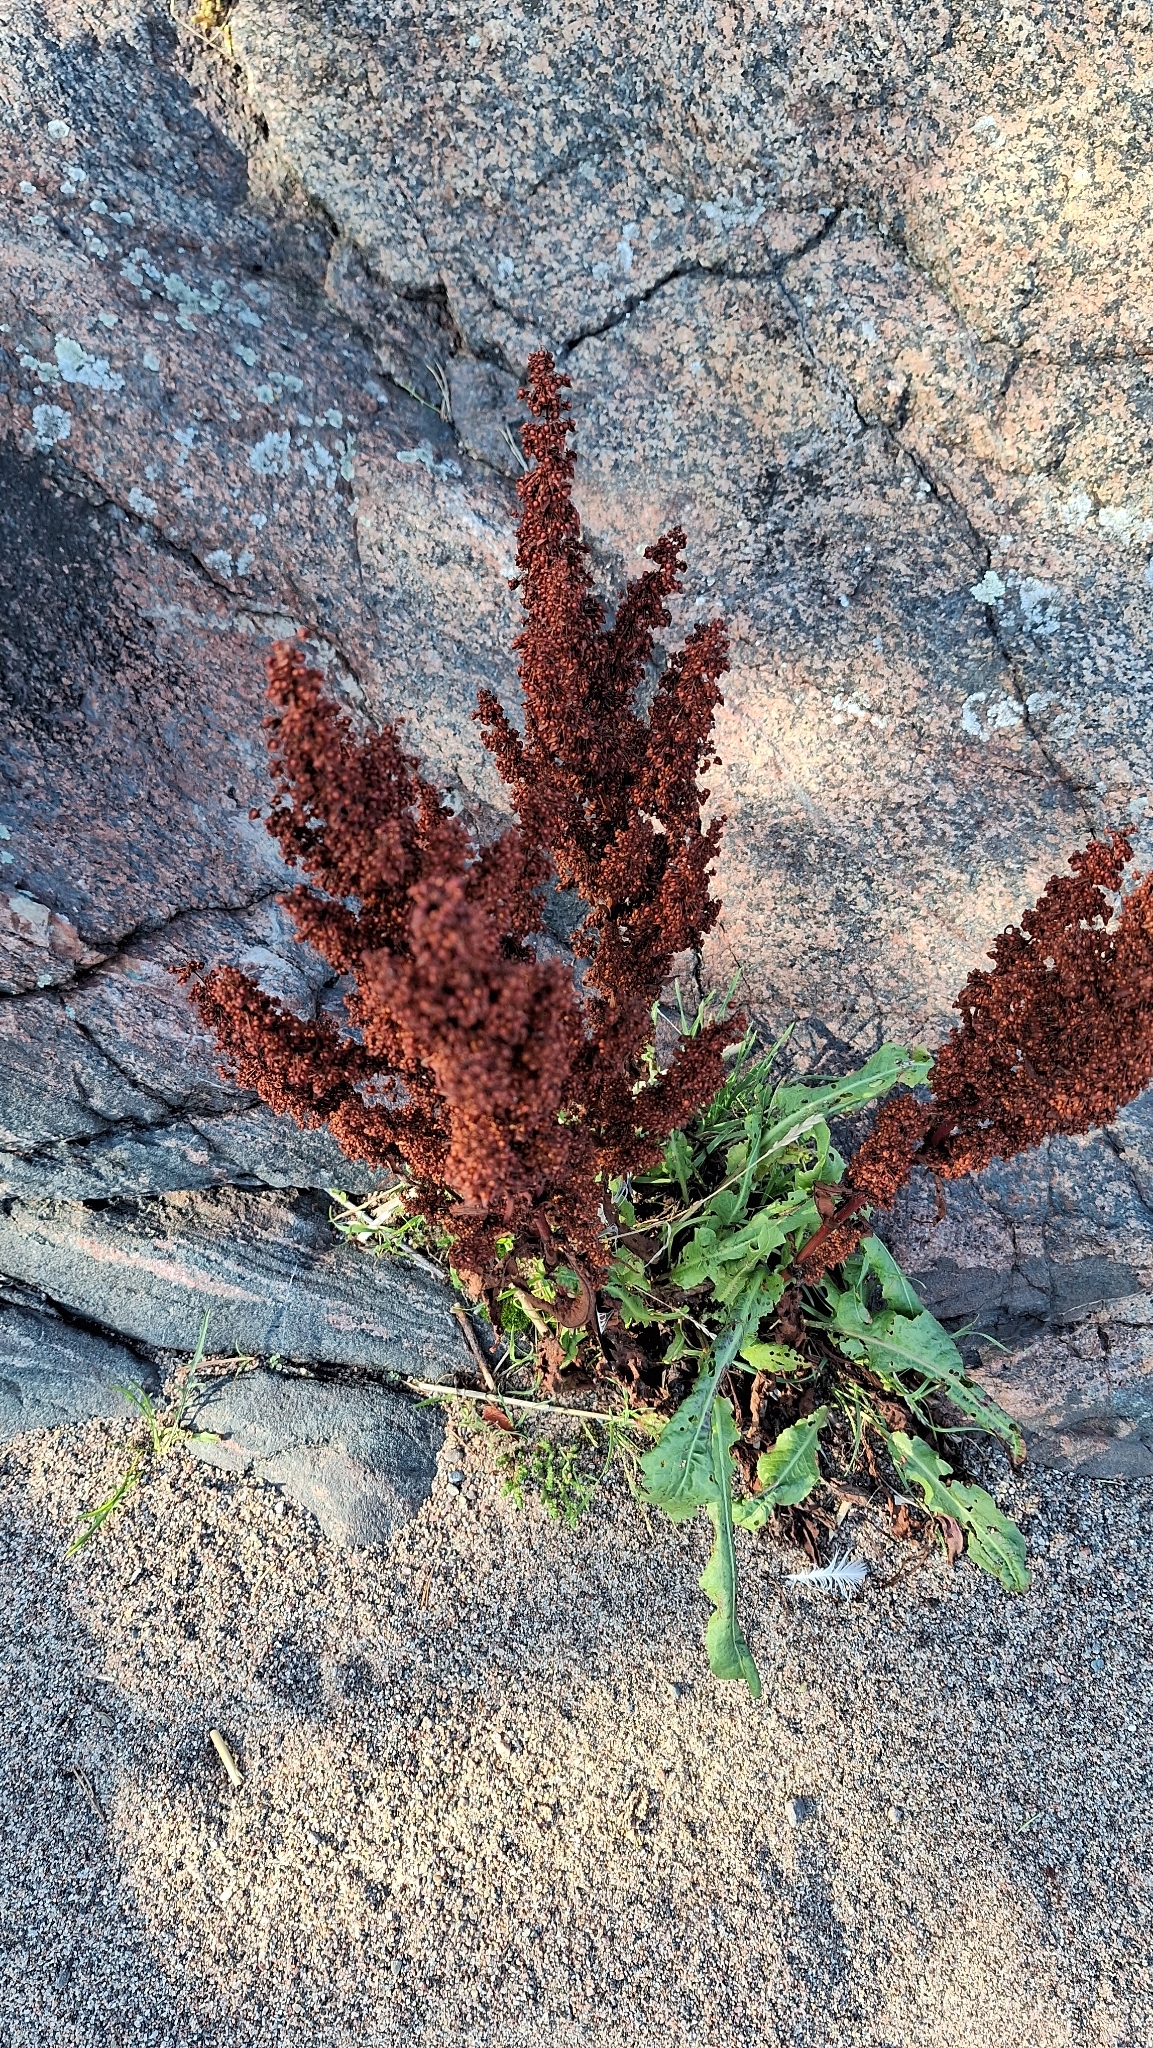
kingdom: Plantae
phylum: Tracheophyta
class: Magnoliopsida
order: Caryophyllales
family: Polygonaceae
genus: Rumex
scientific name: Rumex crispus
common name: Curled dock
